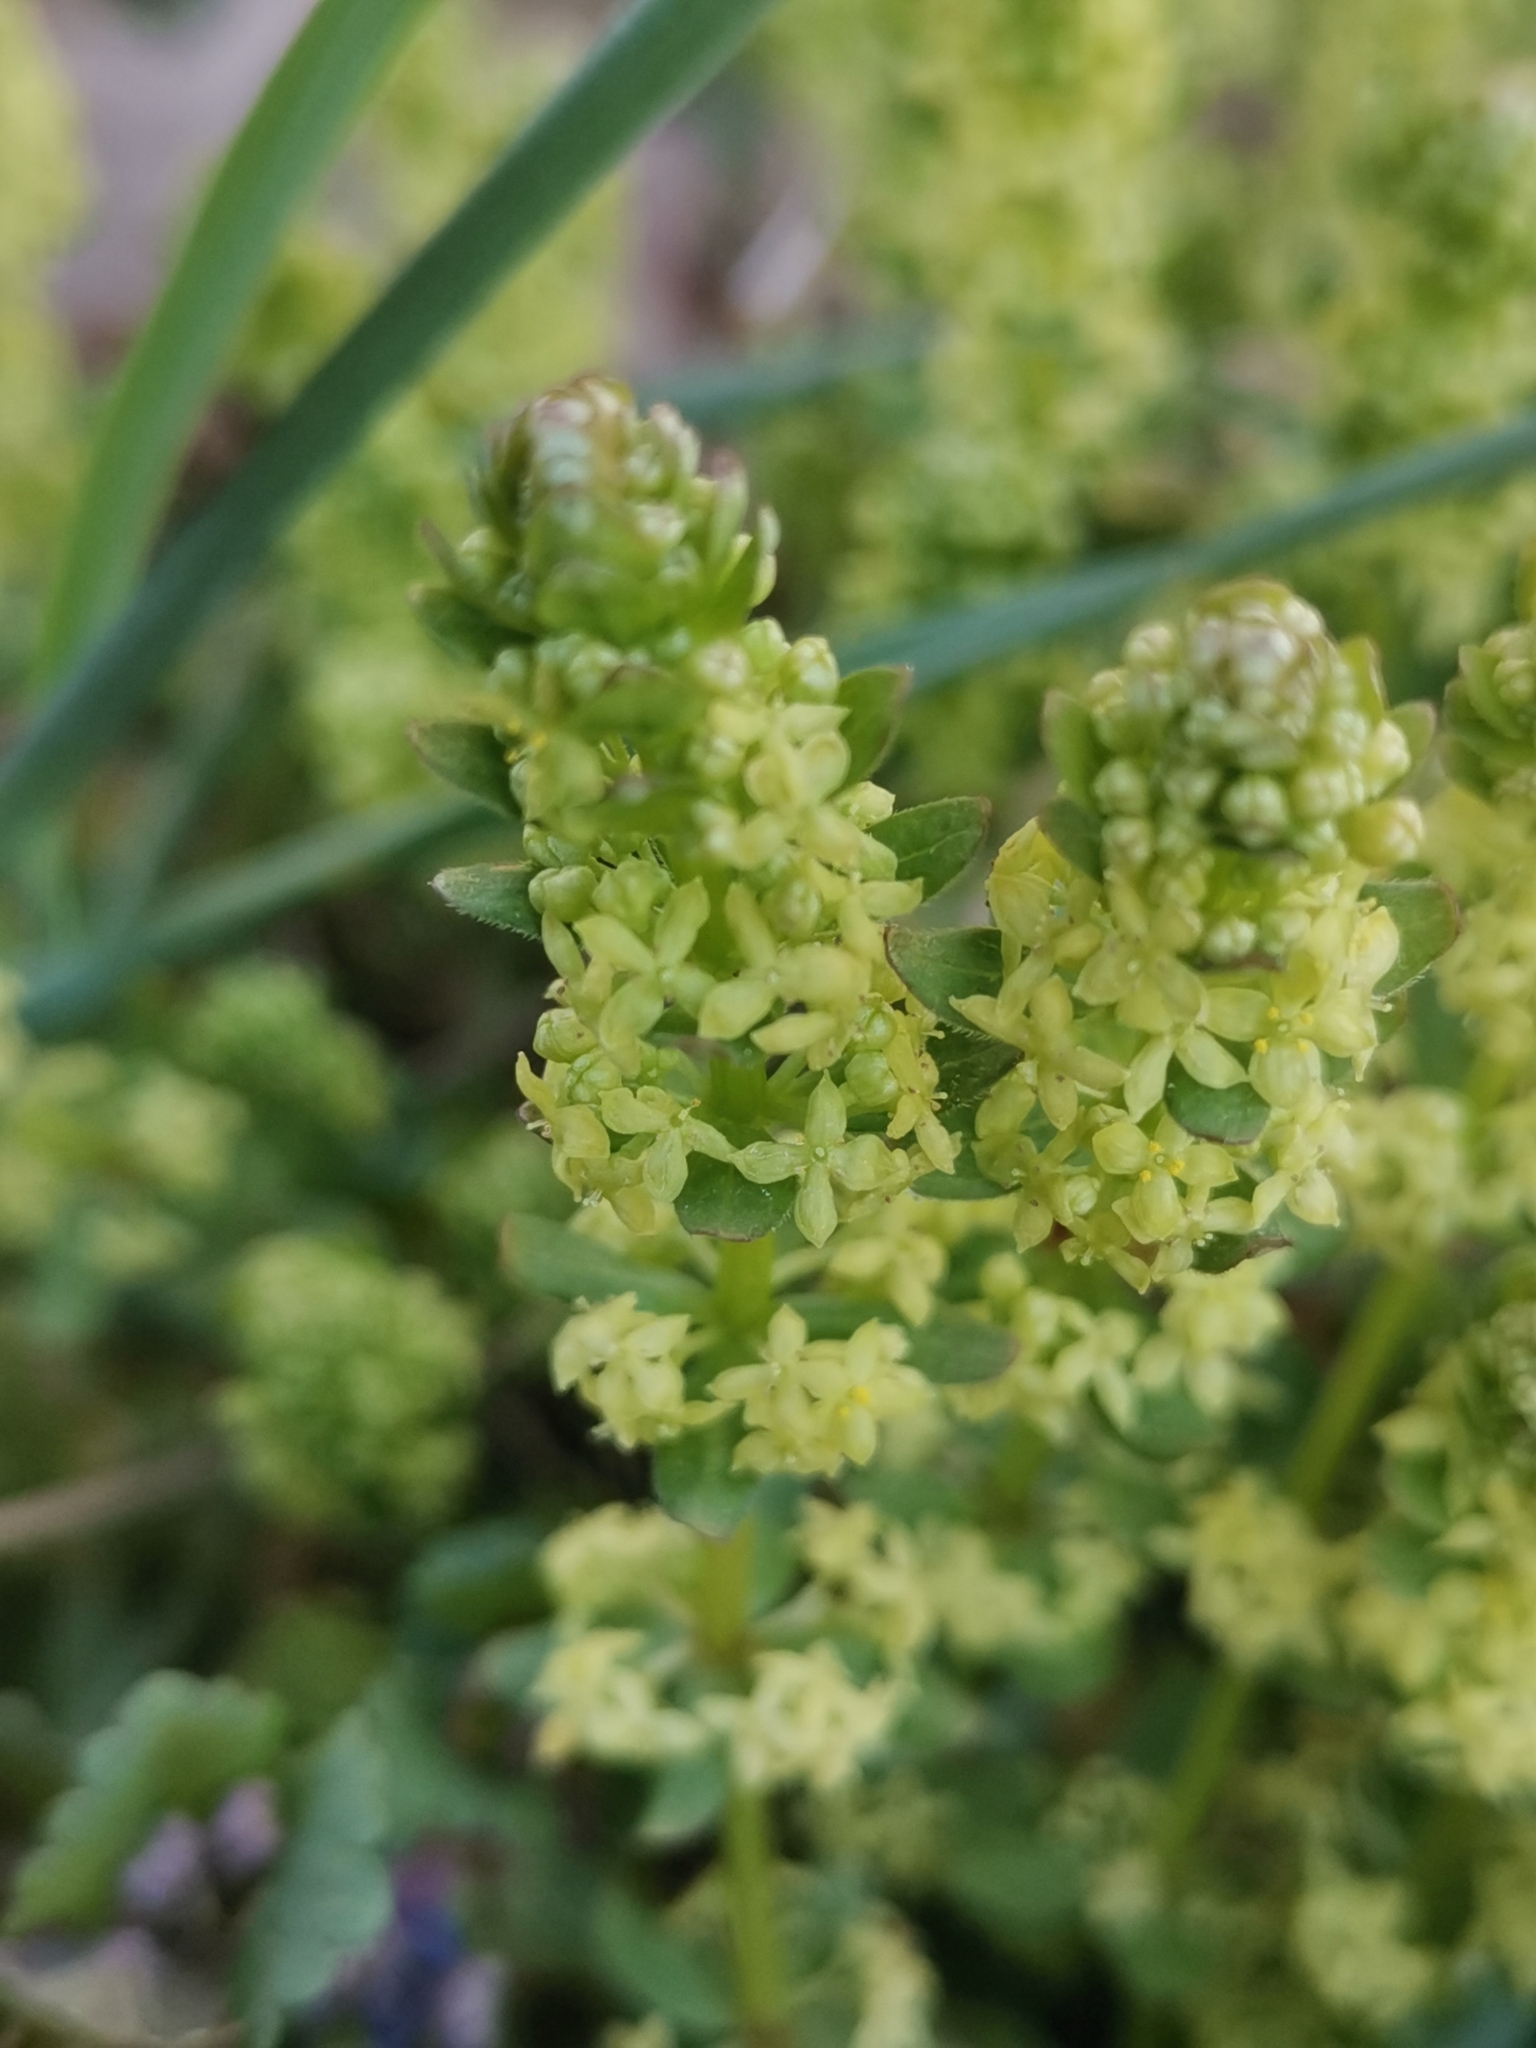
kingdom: Plantae
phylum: Tracheophyta
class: Magnoliopsida
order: Gentianales
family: Rubiaceae
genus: Cruciata
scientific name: Cruciata glabra
